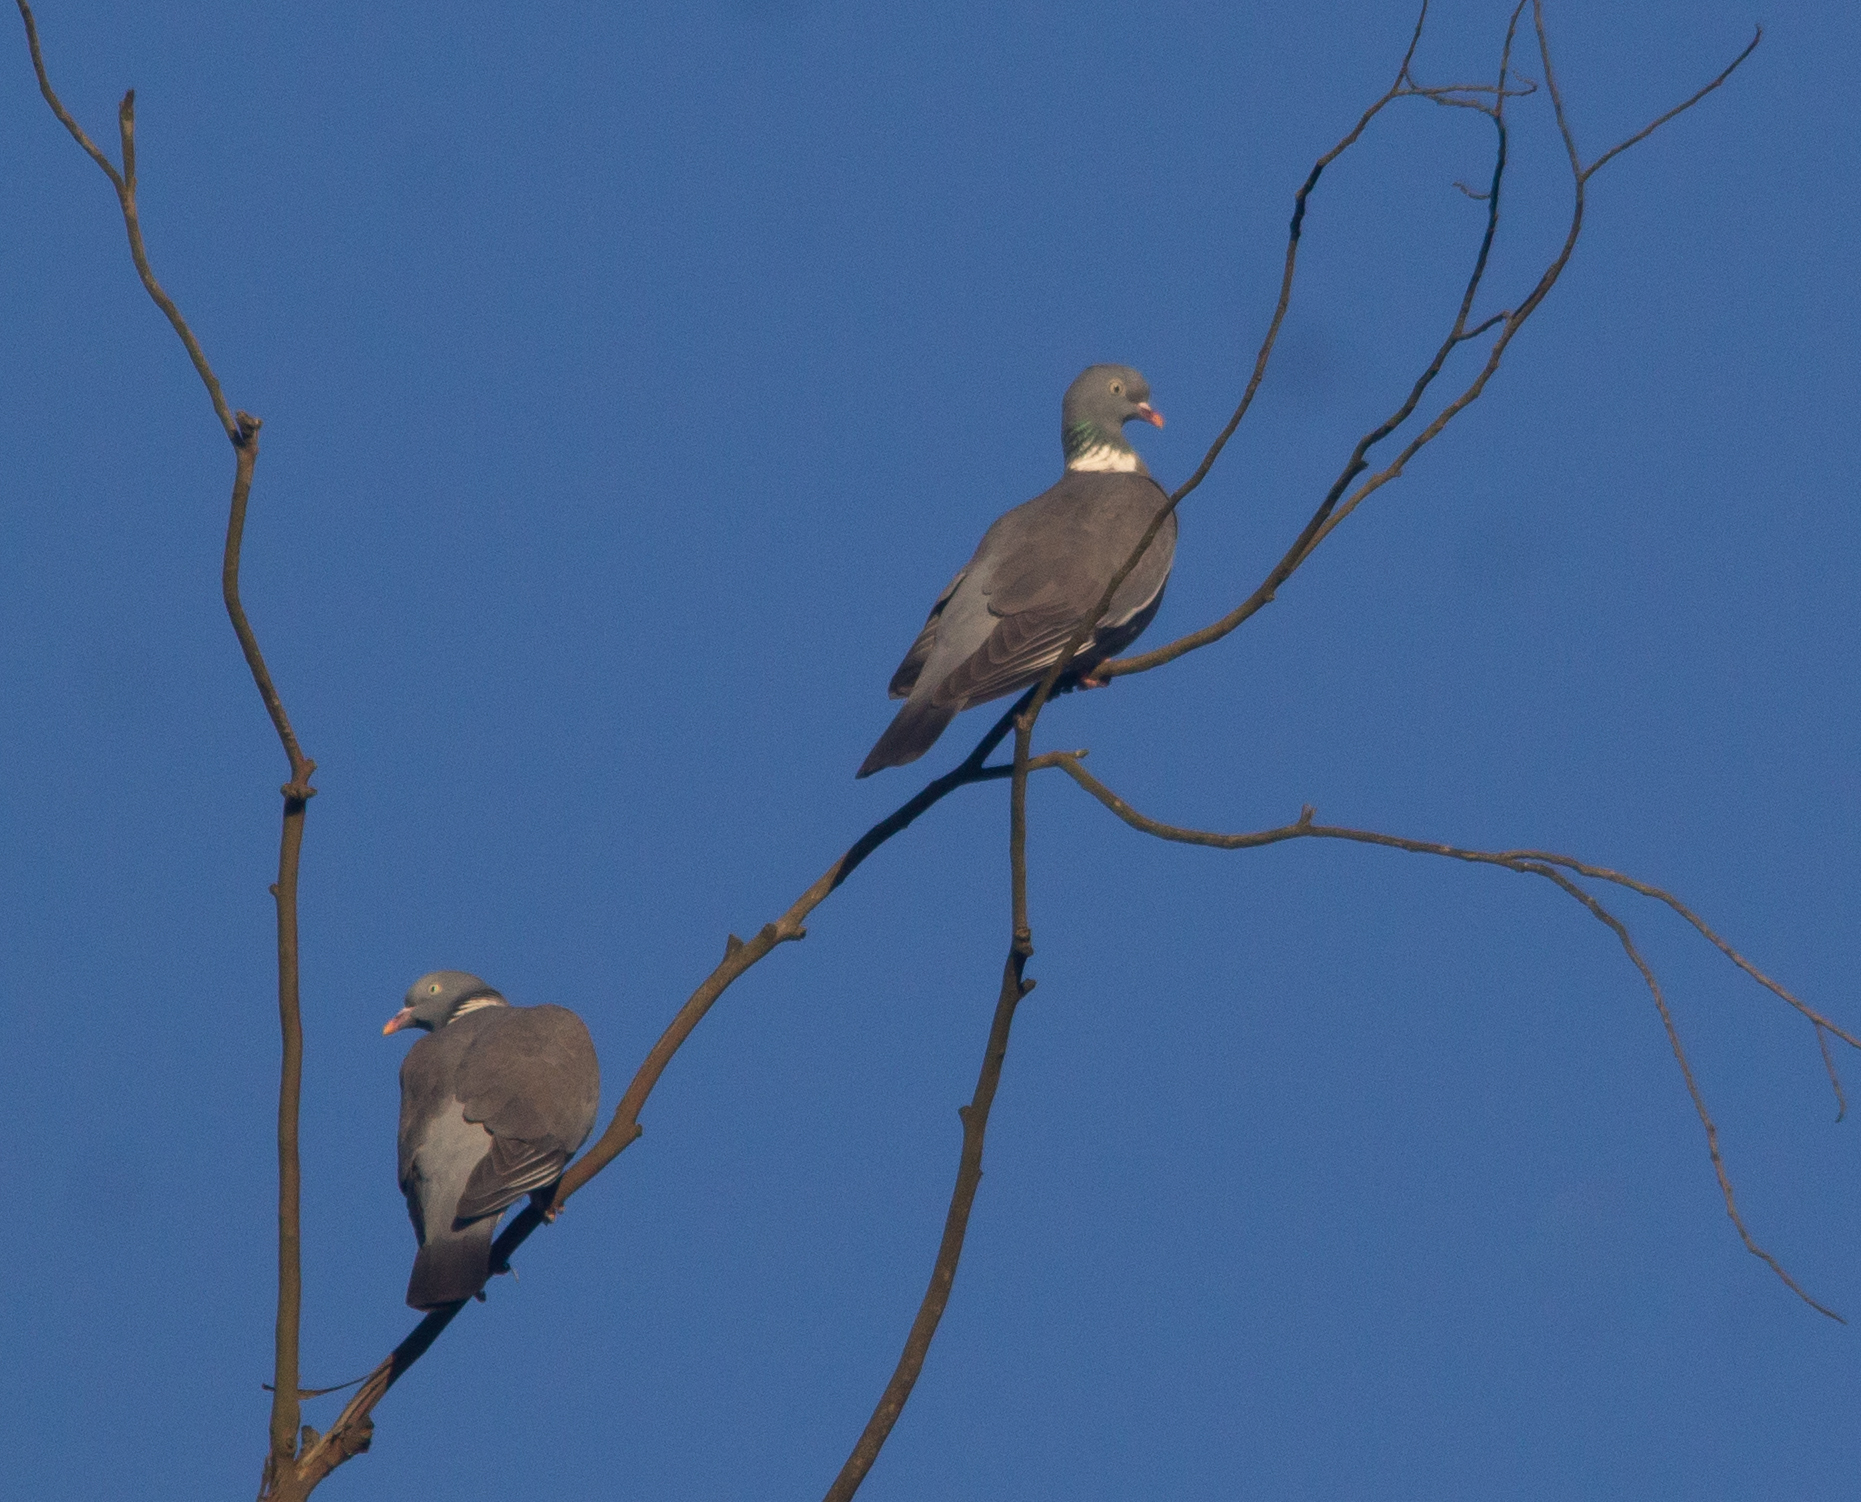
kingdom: Animalia
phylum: Chordata
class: Aves
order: Columbiformes
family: Columbidae
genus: Columba
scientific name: Columba palumbus
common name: Common wood pigeon
